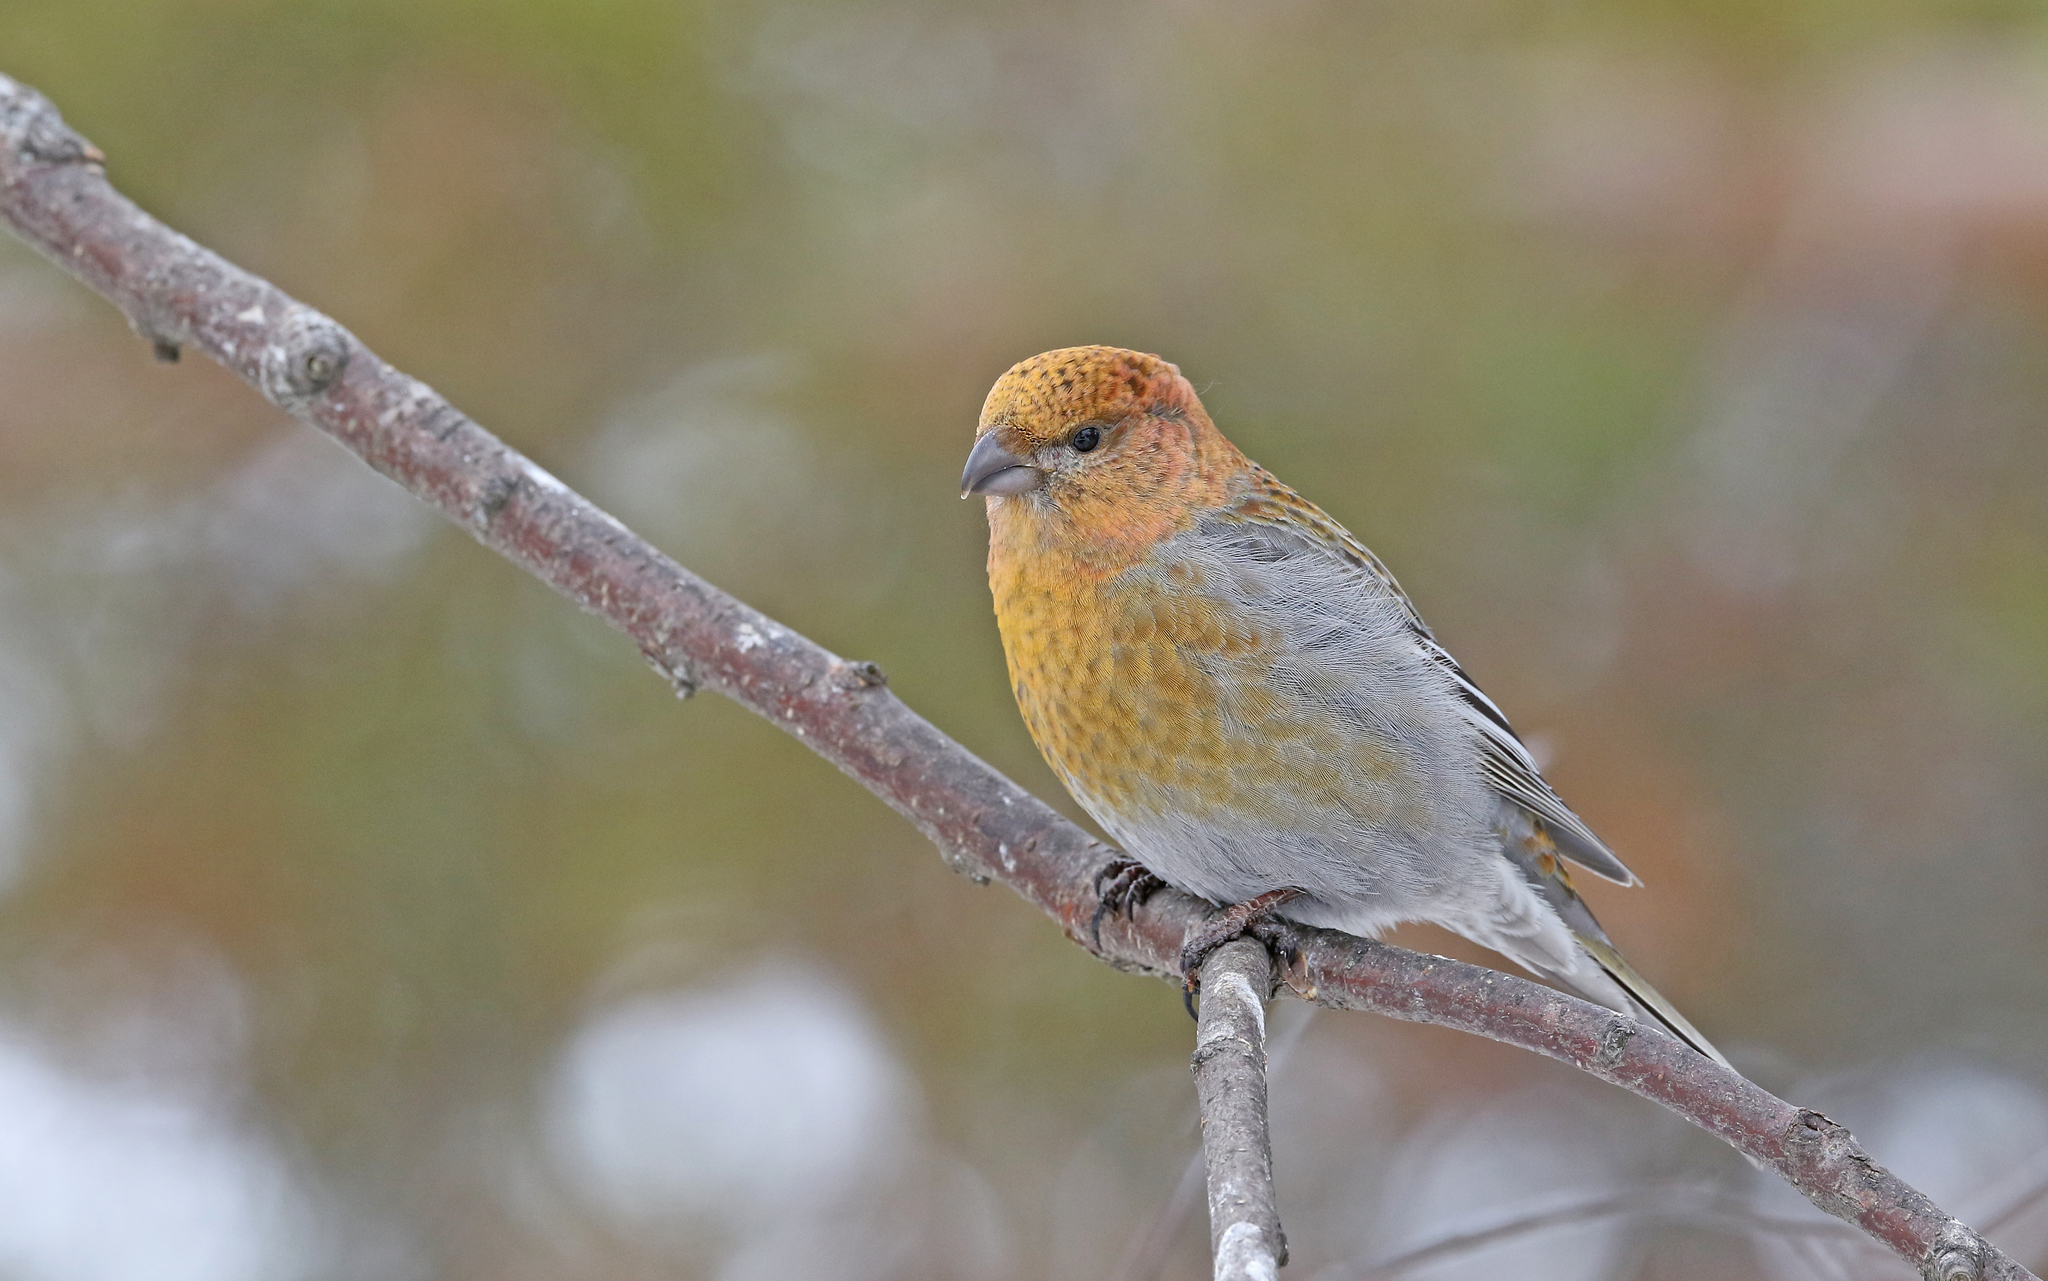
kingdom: Animalia
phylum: Chordata
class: Aves
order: Passeriformes
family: Fringillidae
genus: Pinicola
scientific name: Pinicola enucleator
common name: Pine grosbeak
